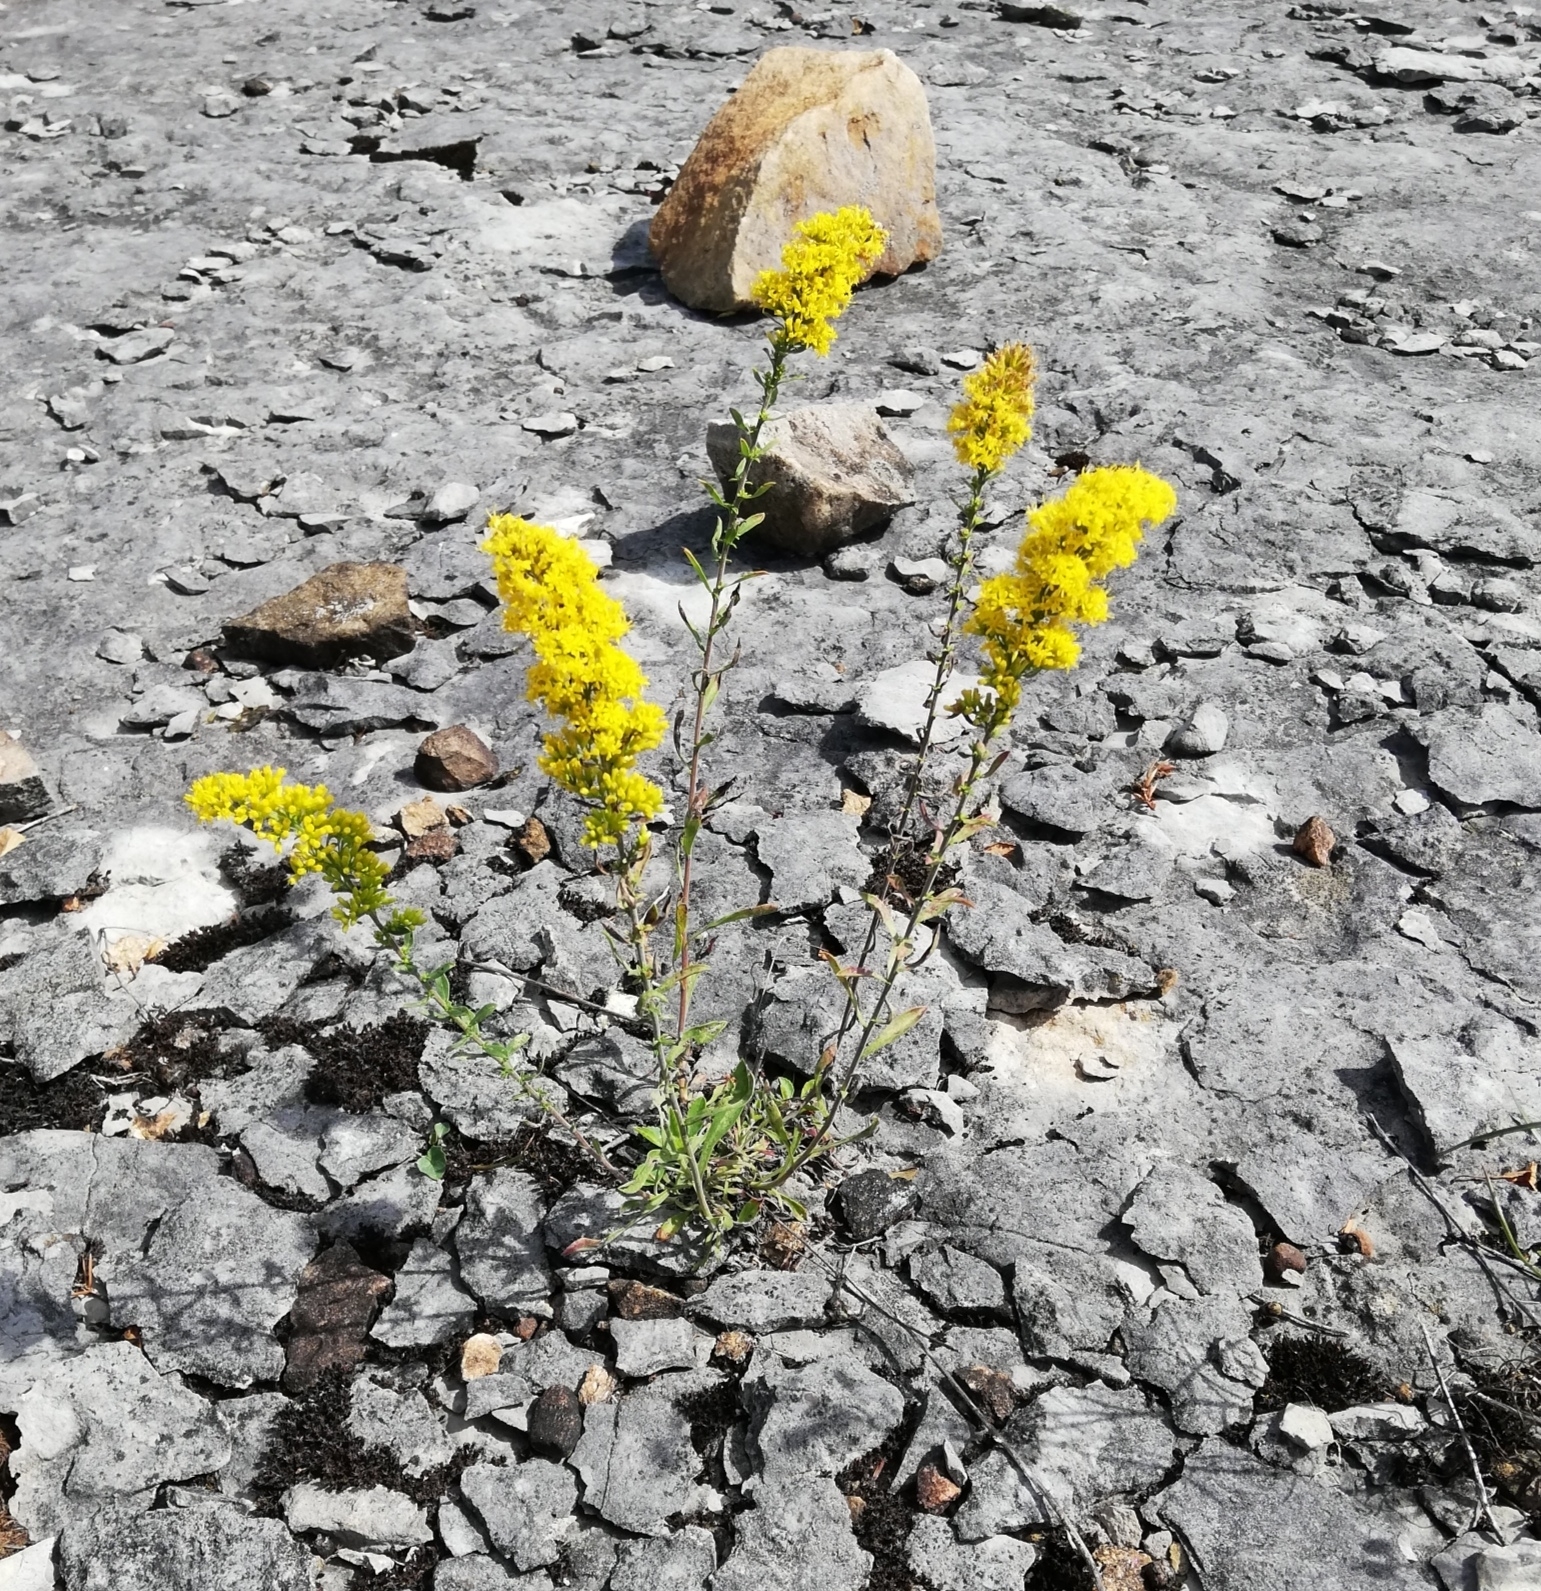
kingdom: Plantae
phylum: Tracheophyta
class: Magnoliopsida
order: Asterales
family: Asteraceae
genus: Solidago
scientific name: Solidago nemoralis
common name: Grey goldenrod
